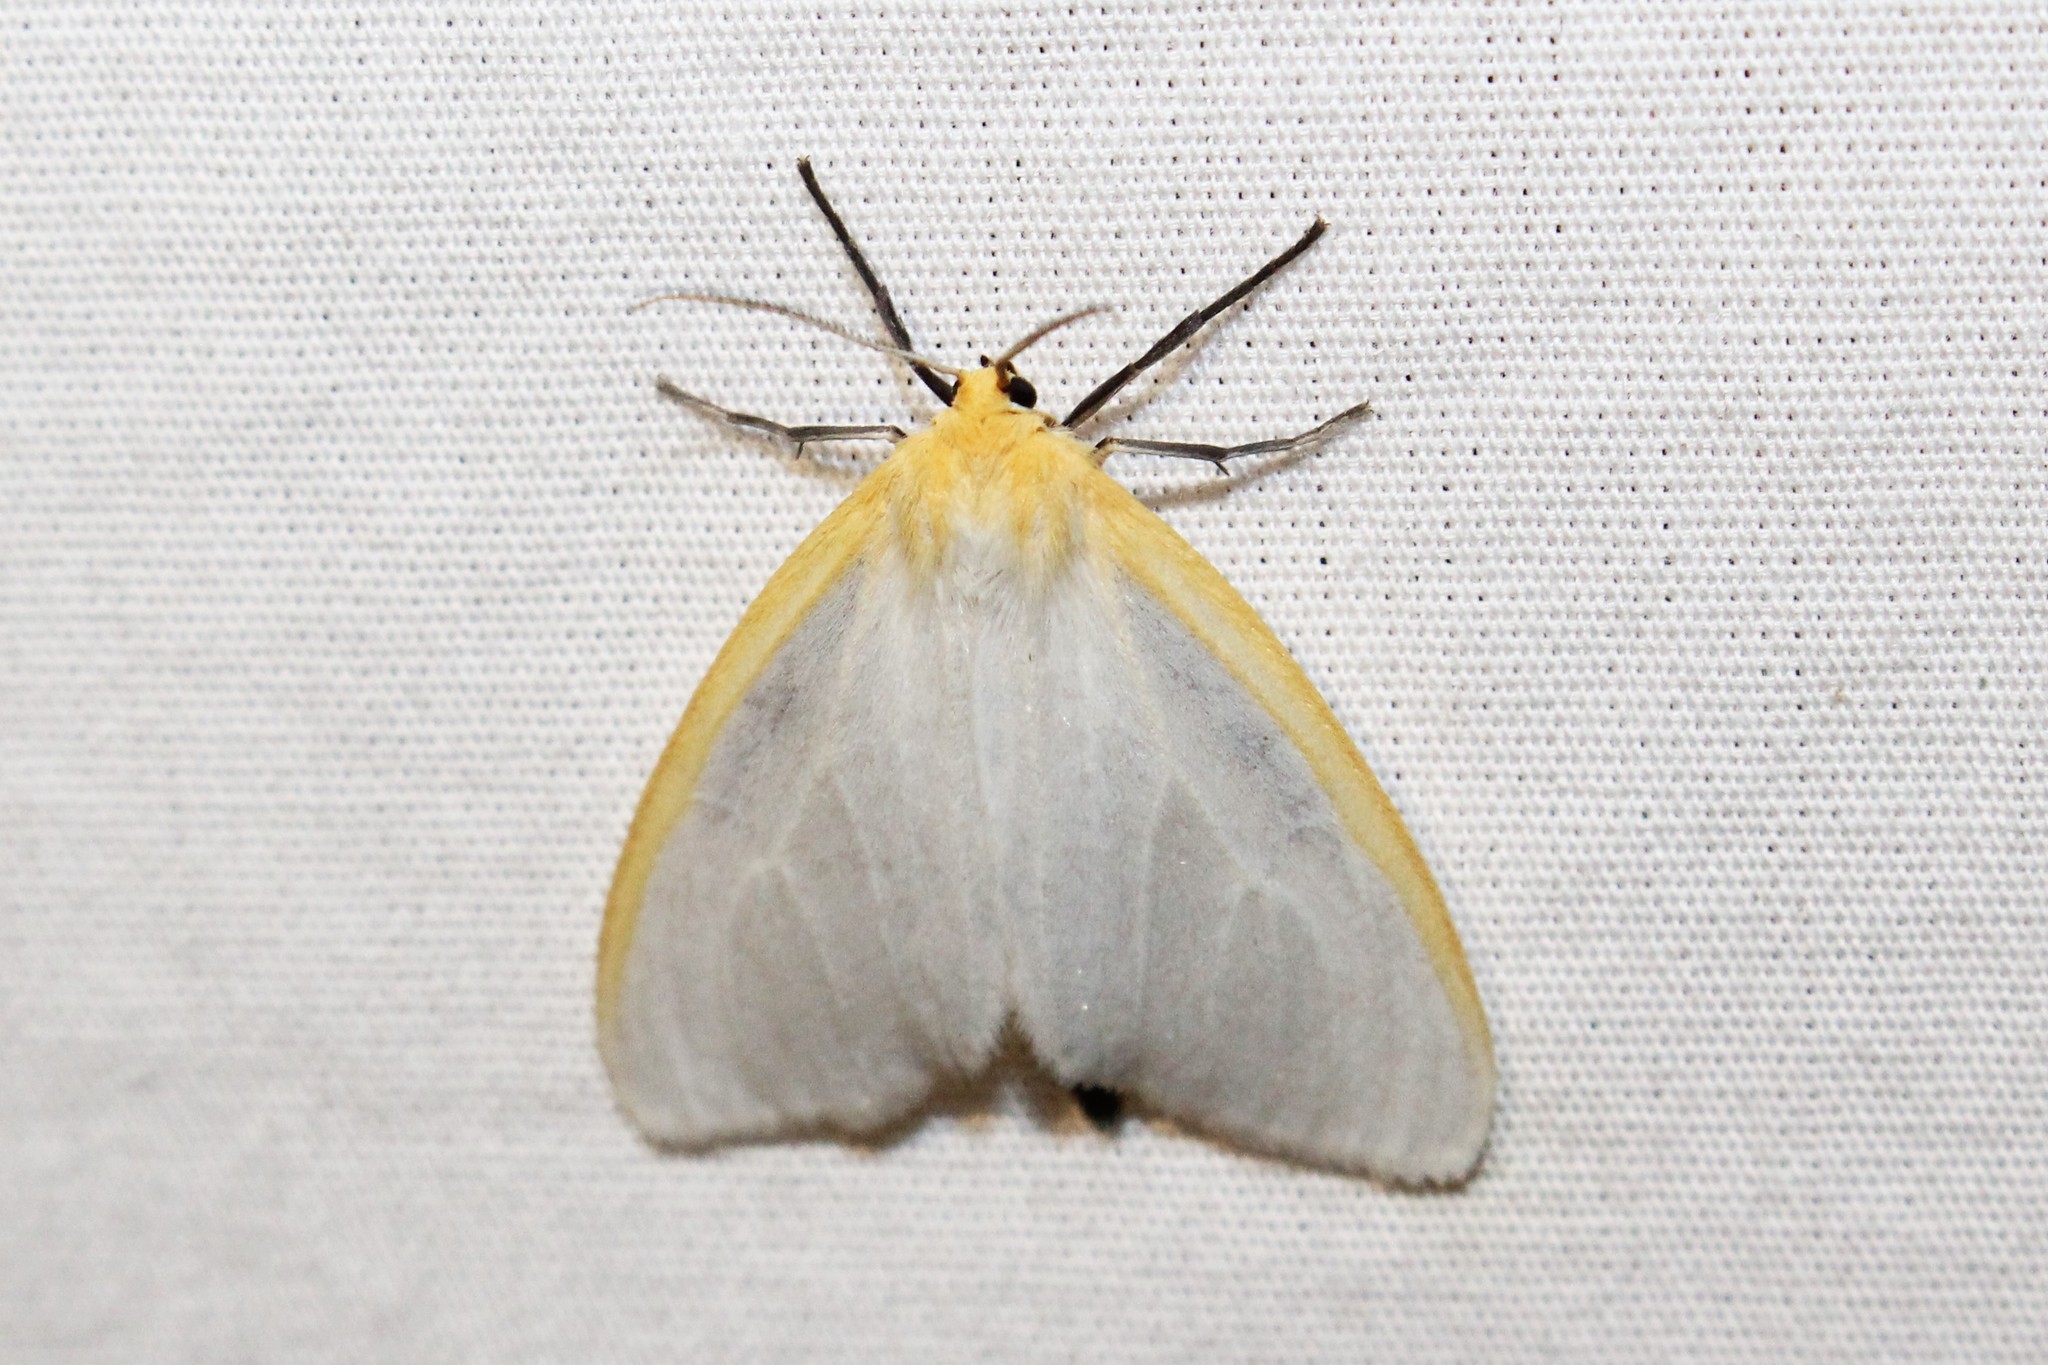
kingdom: Animalia
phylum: Arthropoda
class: Insecta
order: Lepidoptera
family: Erebidae
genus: Cycnia
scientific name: Cycnia tenera
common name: Delicate cycnia moth
